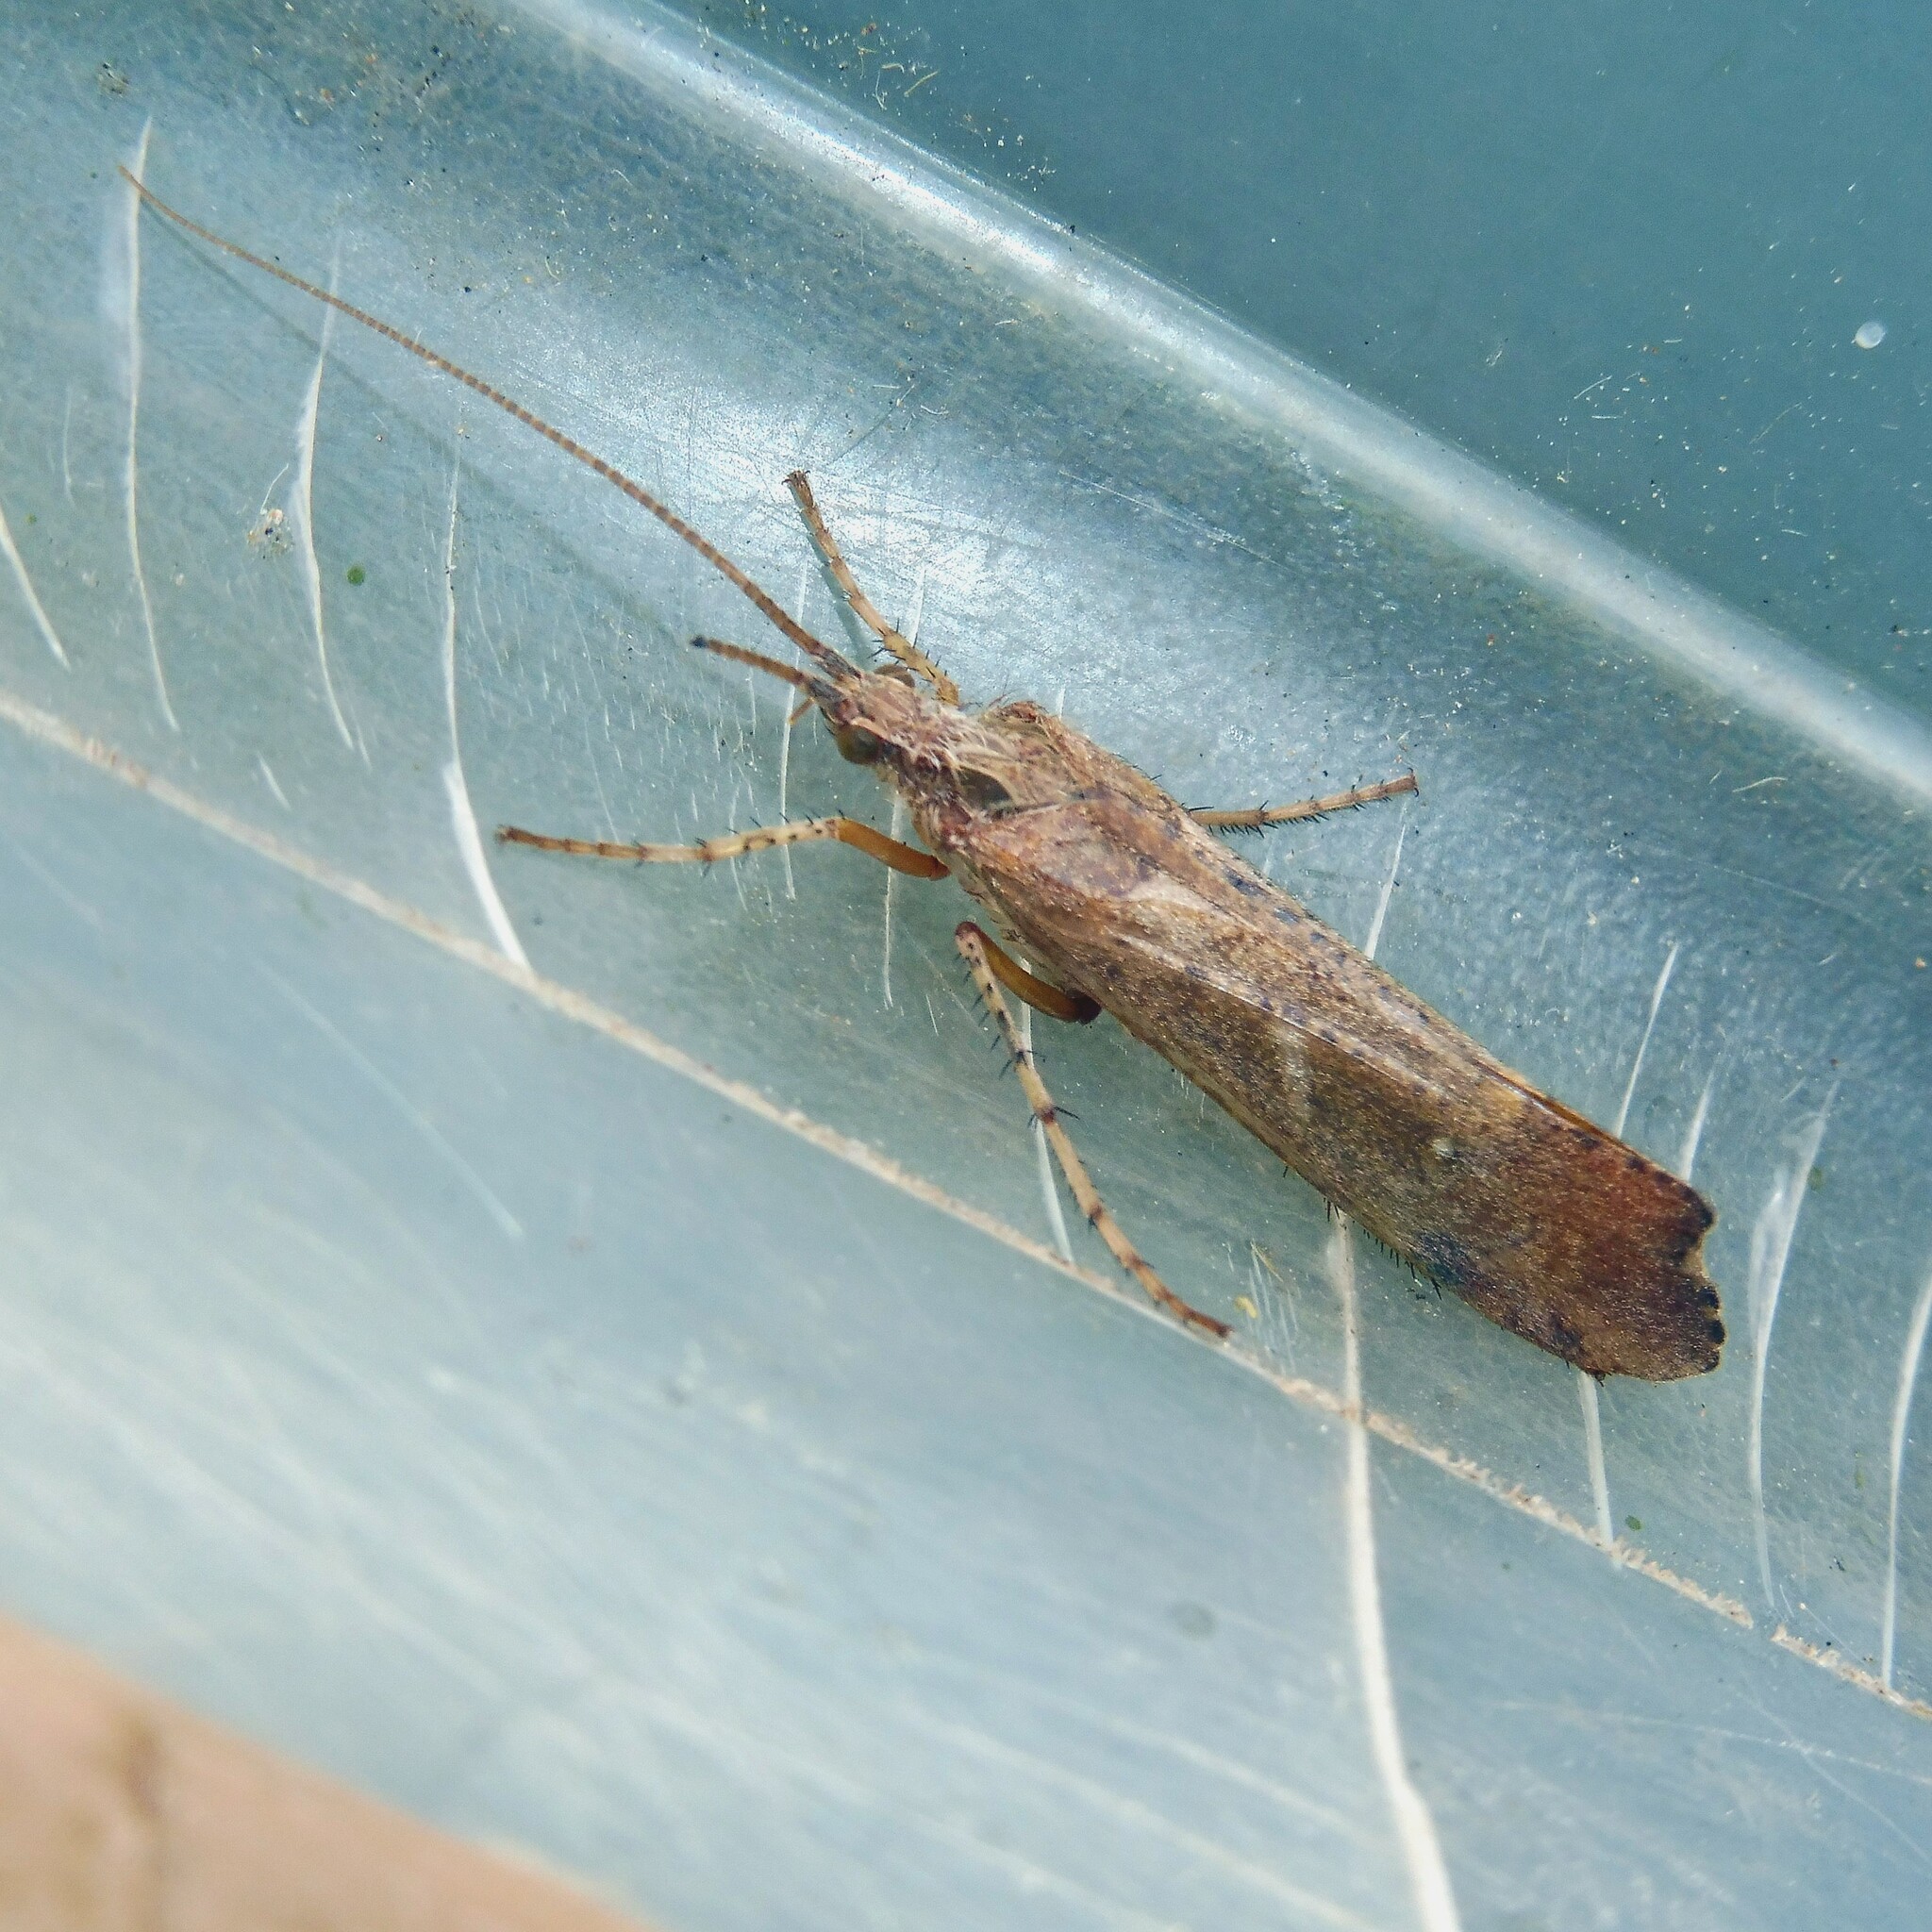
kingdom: Animalia
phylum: Arthropoda
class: Insecta
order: Trichoptera
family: Limnephilidae
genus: Glyphotaelius
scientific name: Glyphotaelius pellucidus
